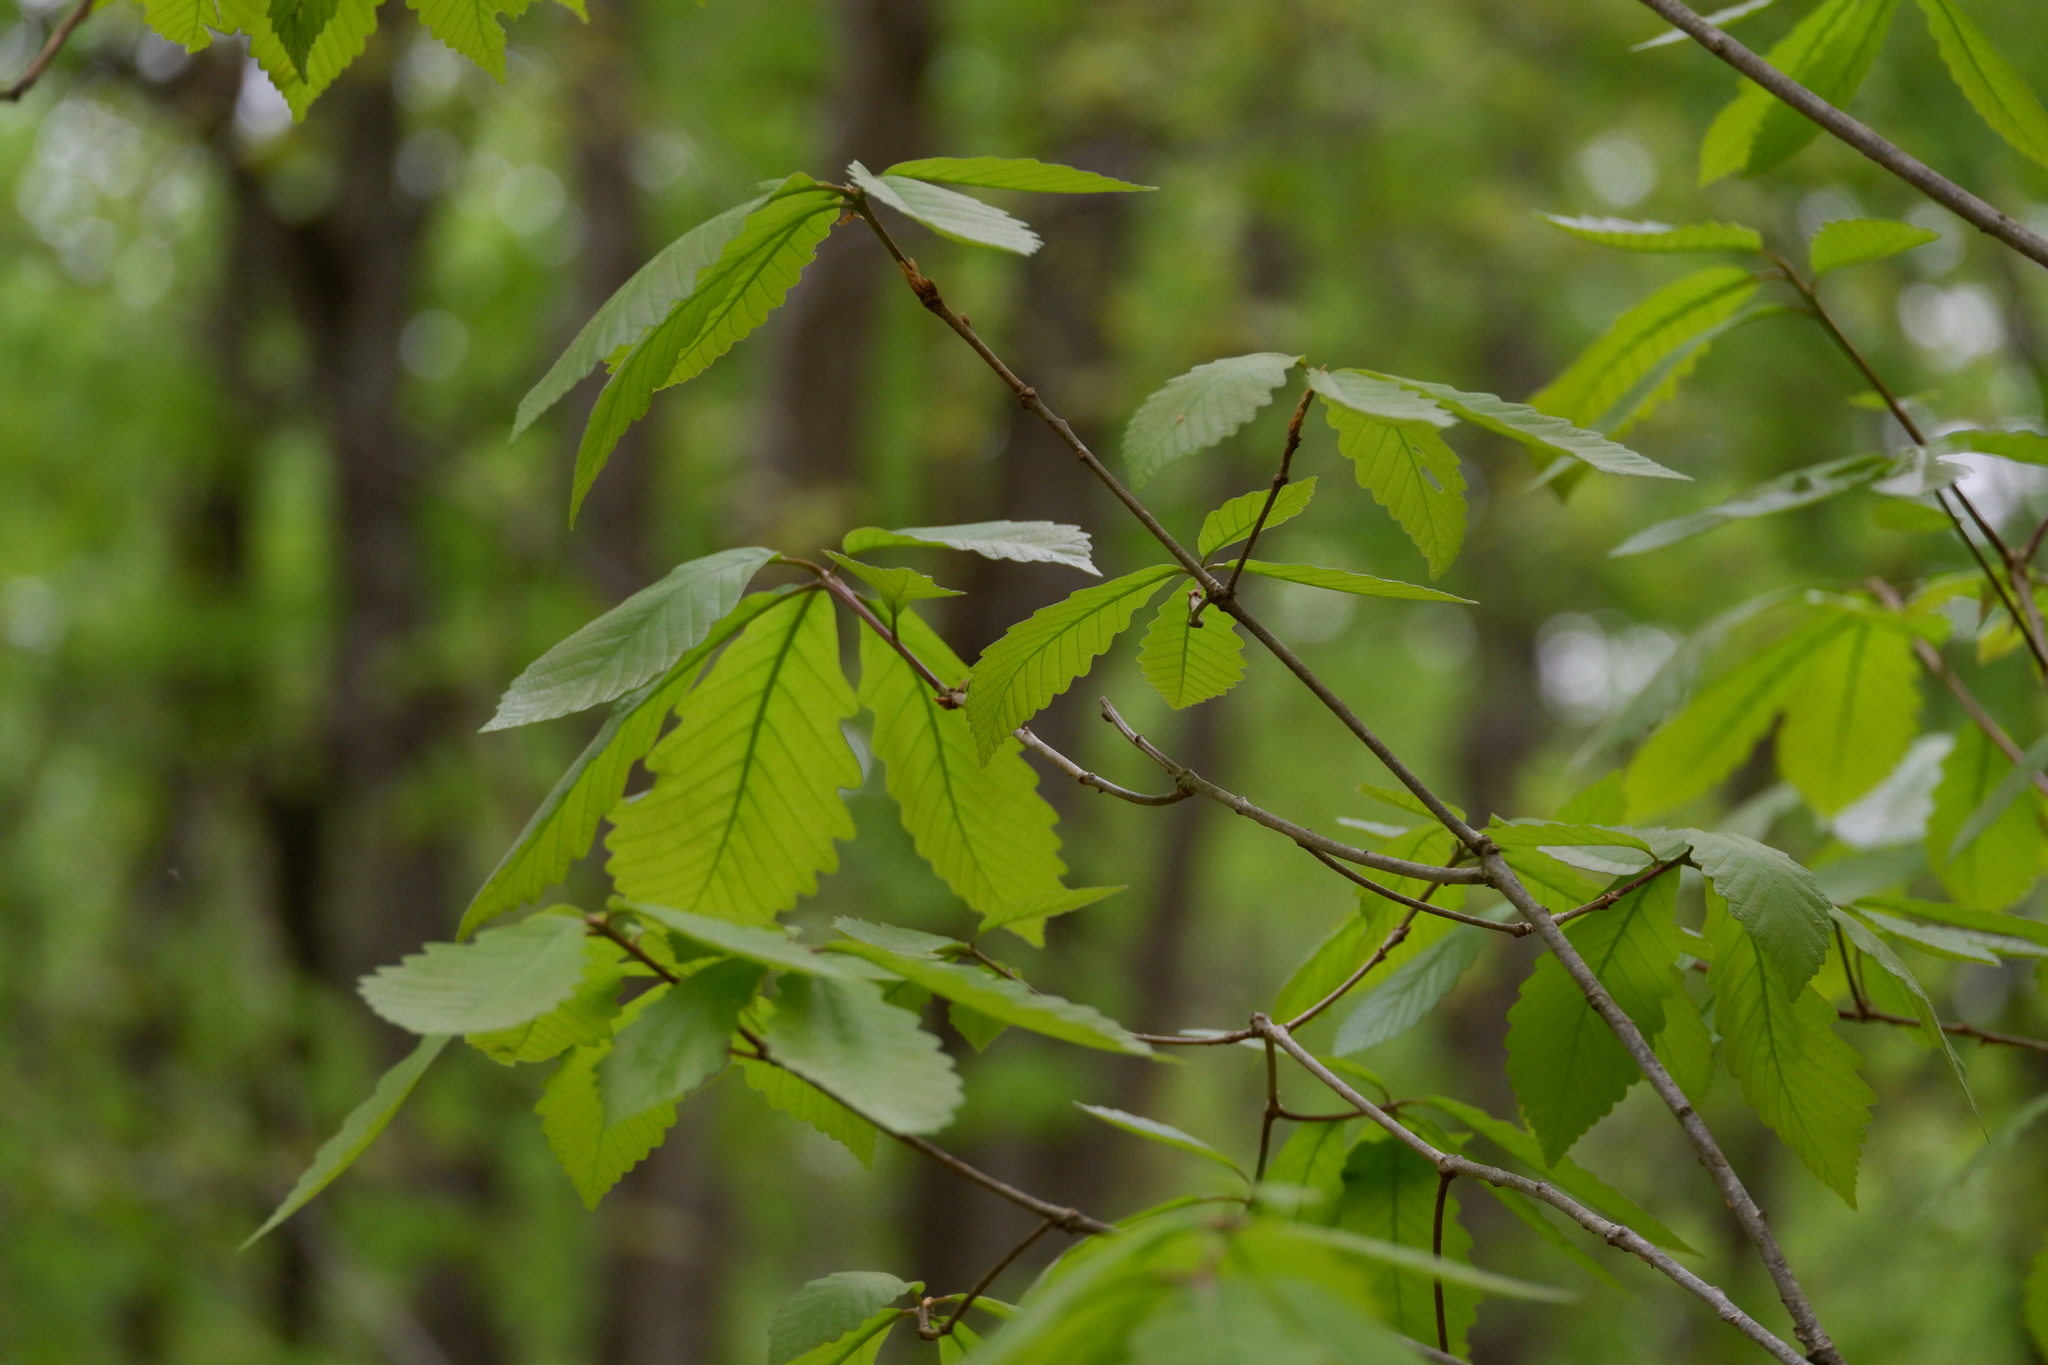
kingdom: Plantae
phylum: Tracheophyta
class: Magnoliopsida
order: Fagales
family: Fagaceae
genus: Quercus
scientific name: Quercus montana
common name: Chestnut oak
